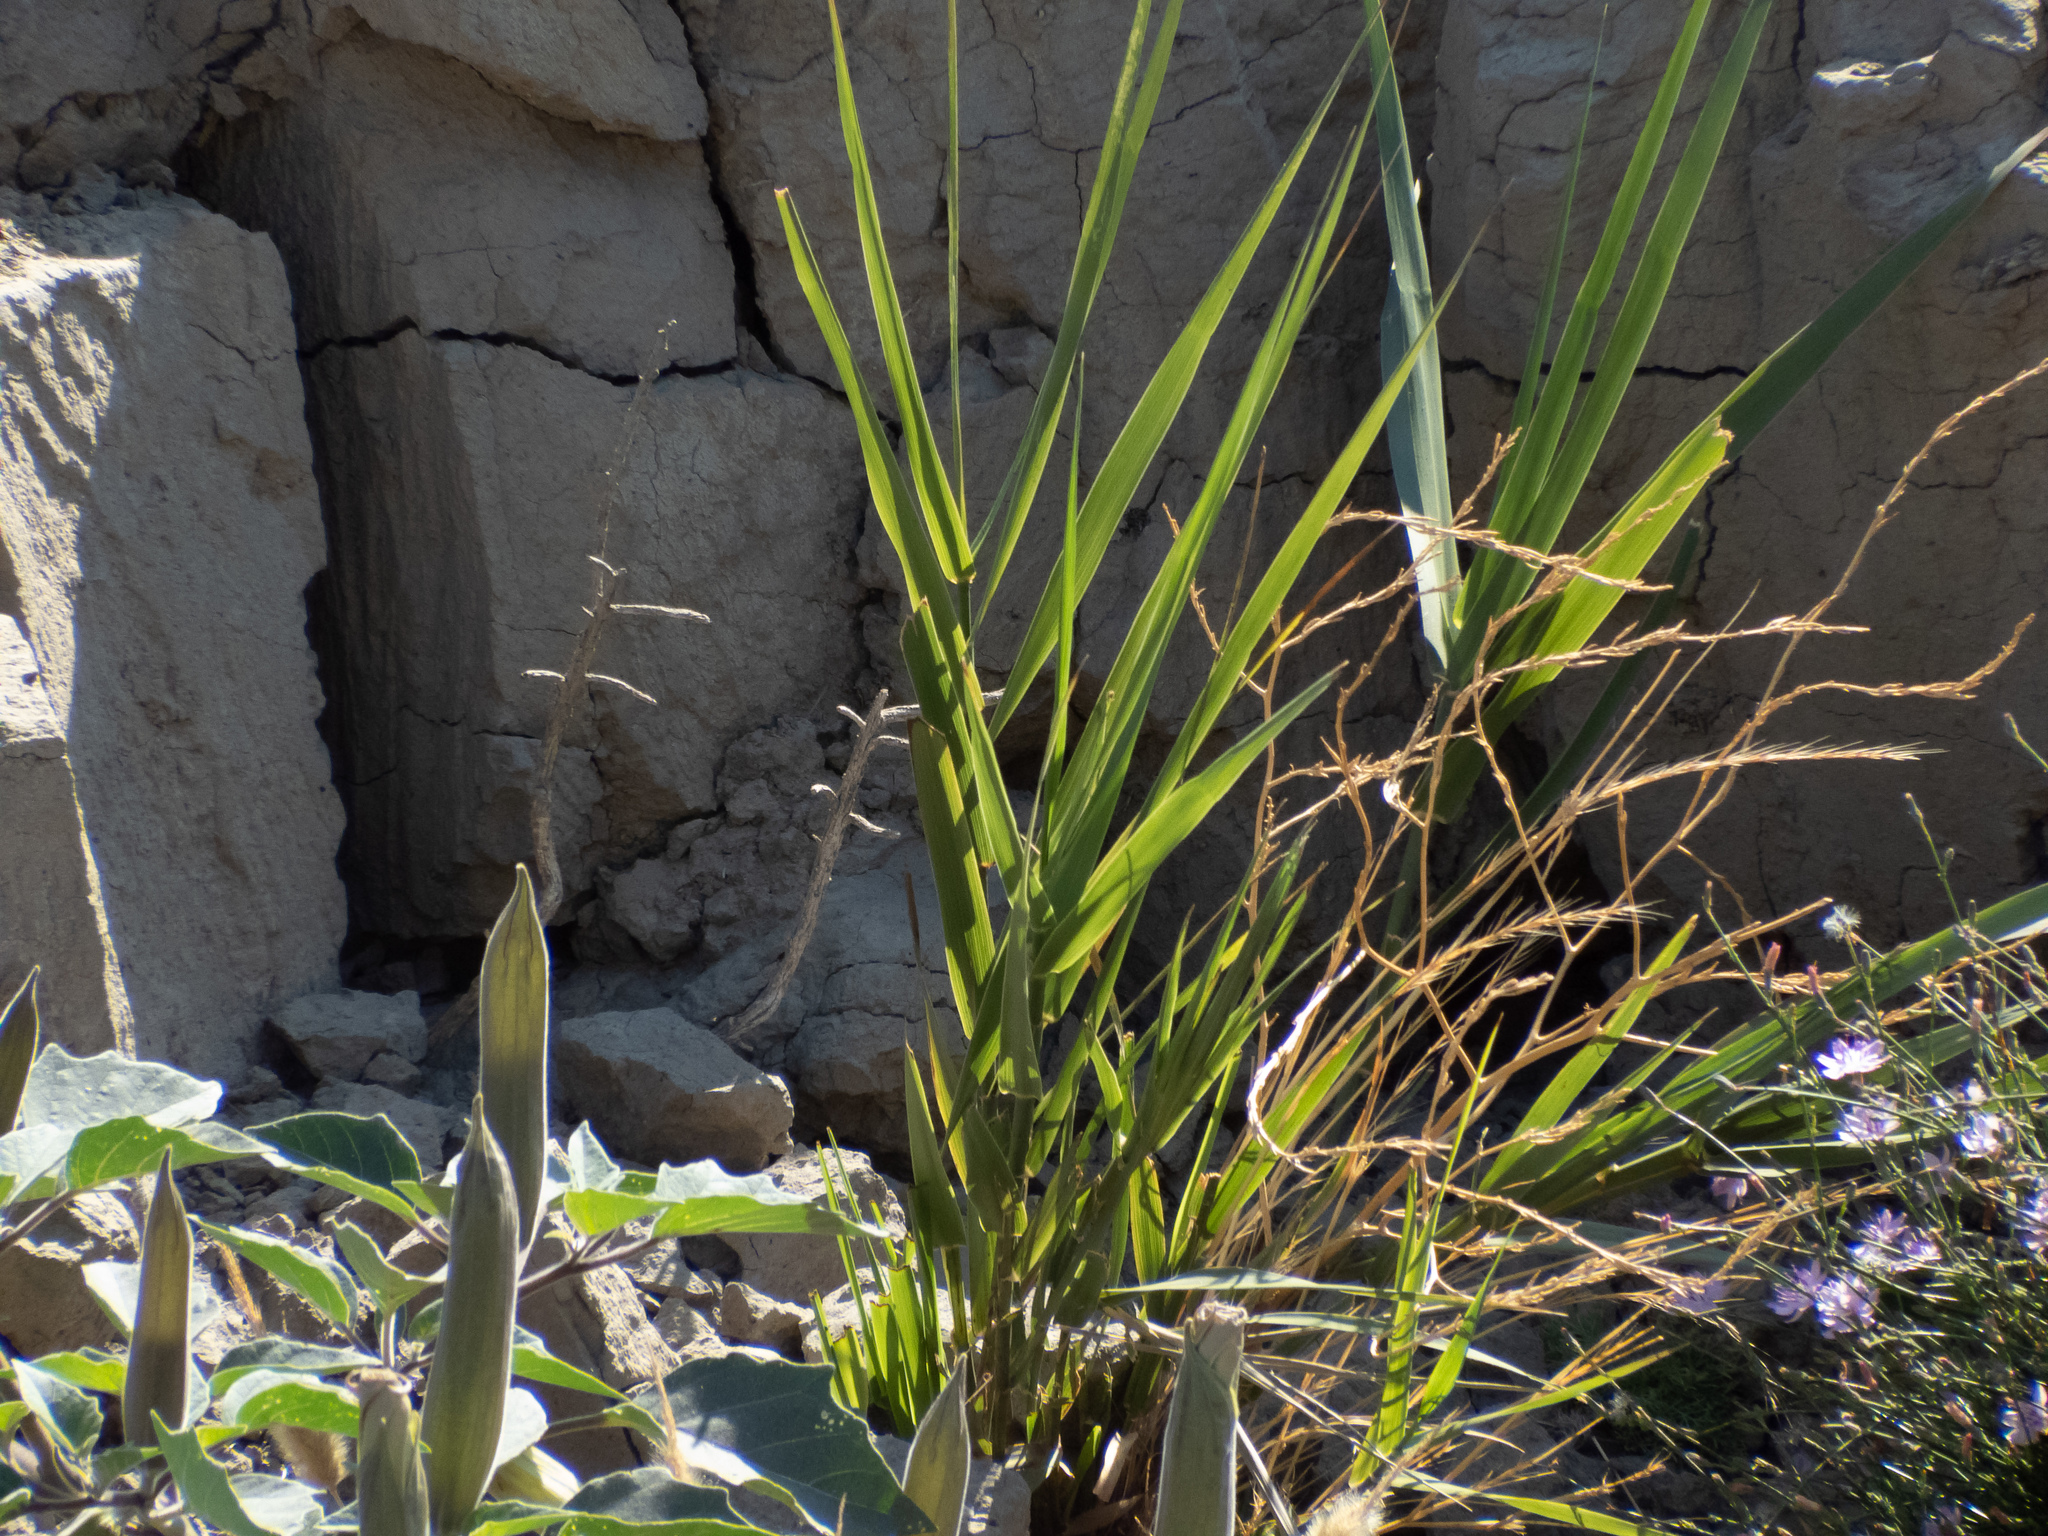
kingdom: Plantae
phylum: Tracheophyta
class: Liliopsida
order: Poales
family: Poaceae
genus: Leymus
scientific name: Leymus condensatus
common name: Giant wild rye
